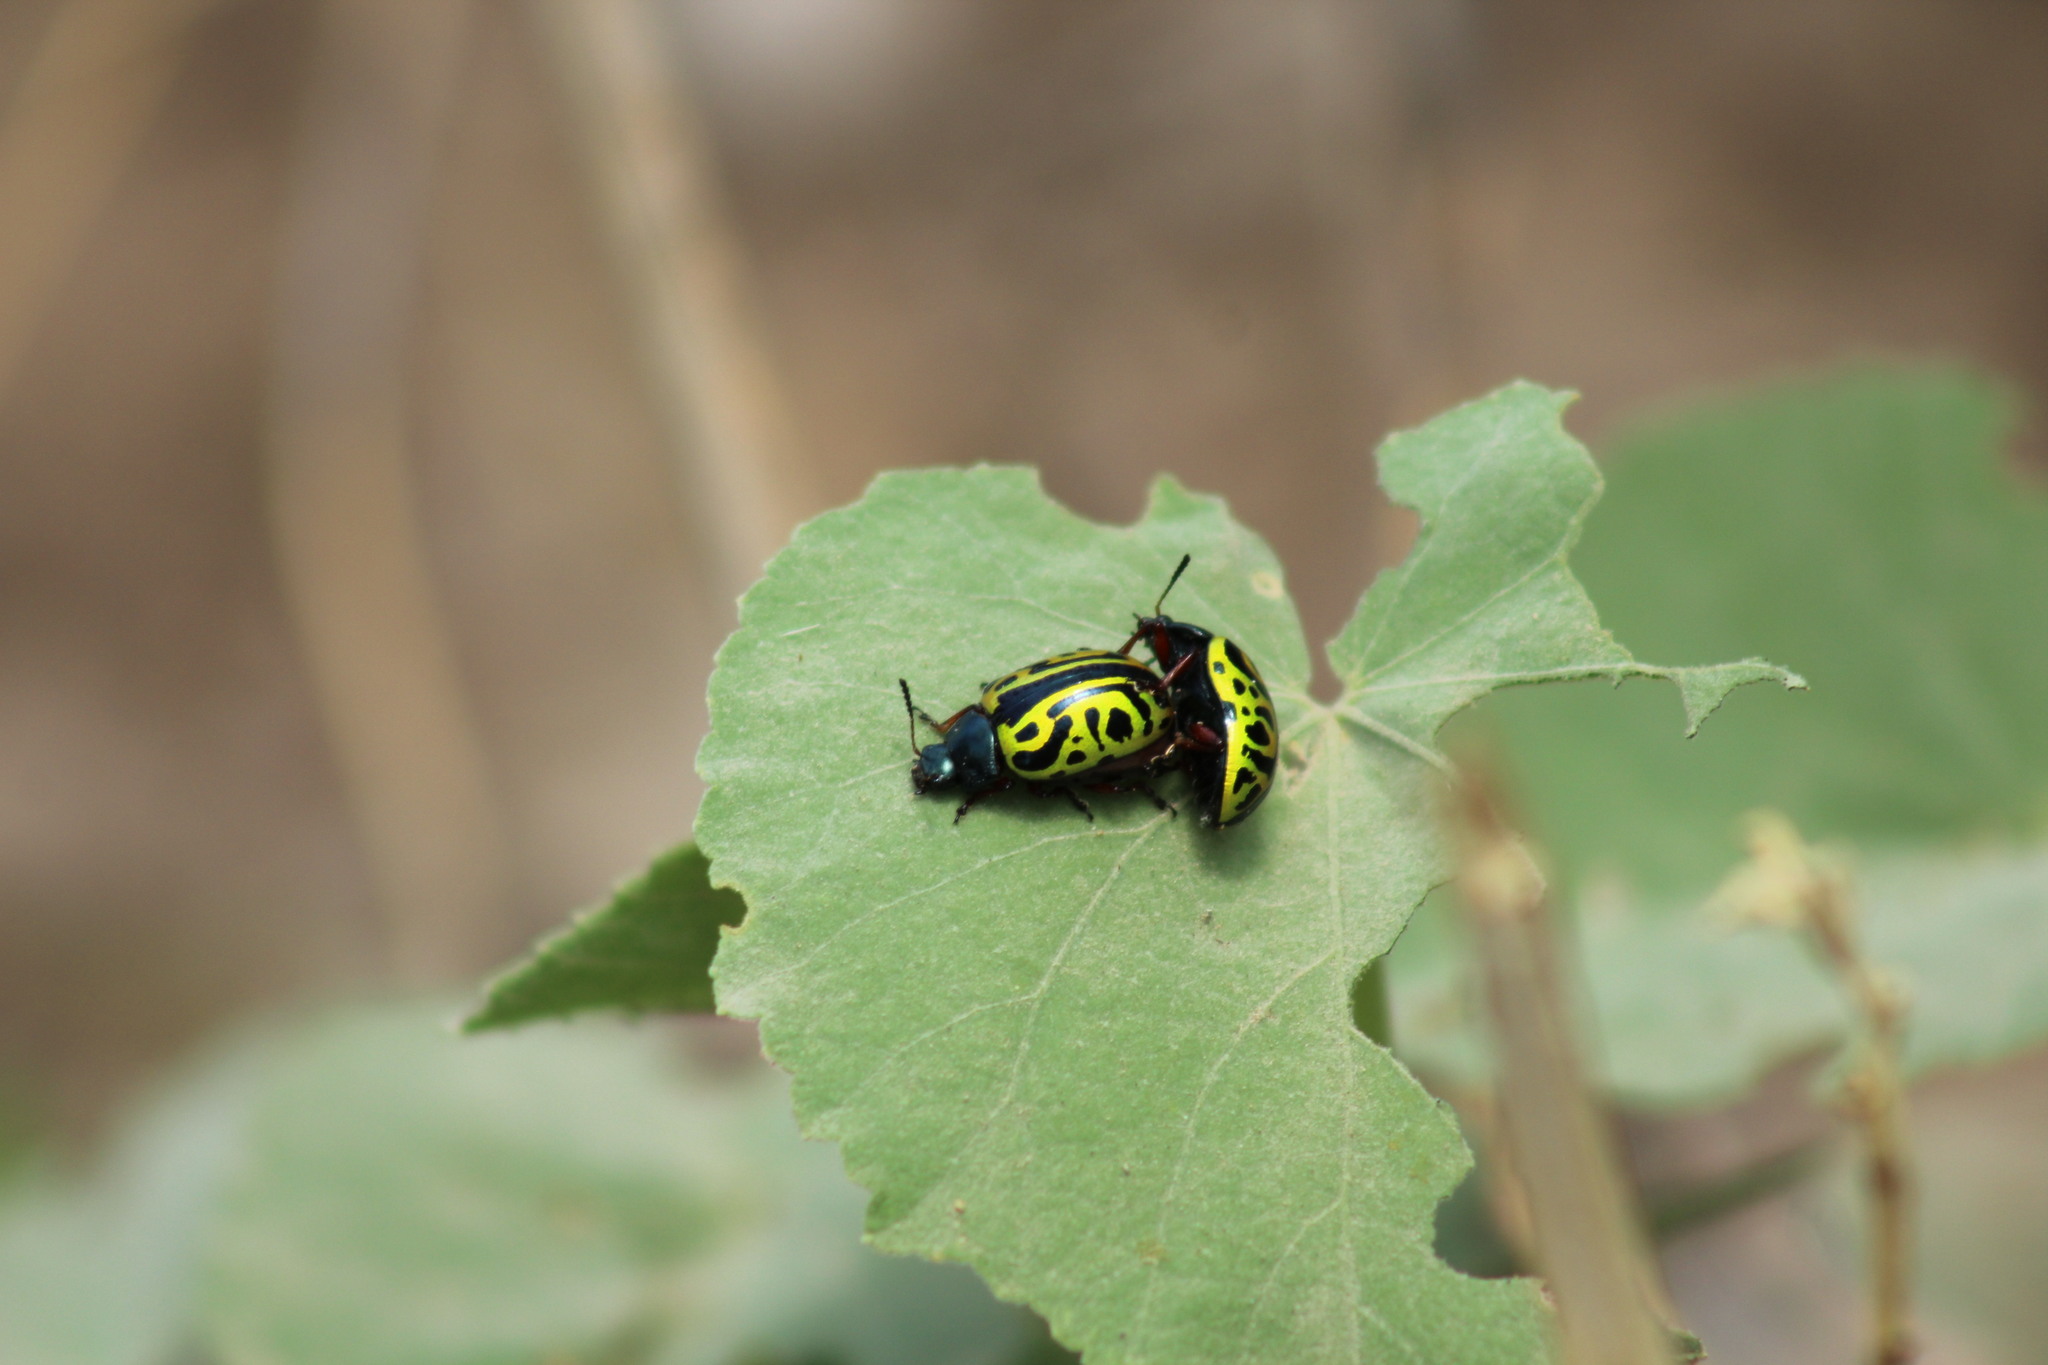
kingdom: Animalia
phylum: Arthropoda
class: Insecta
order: Coleoptera
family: Chrysomelidae
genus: Calligrapha
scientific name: Calligrapha serpentina
